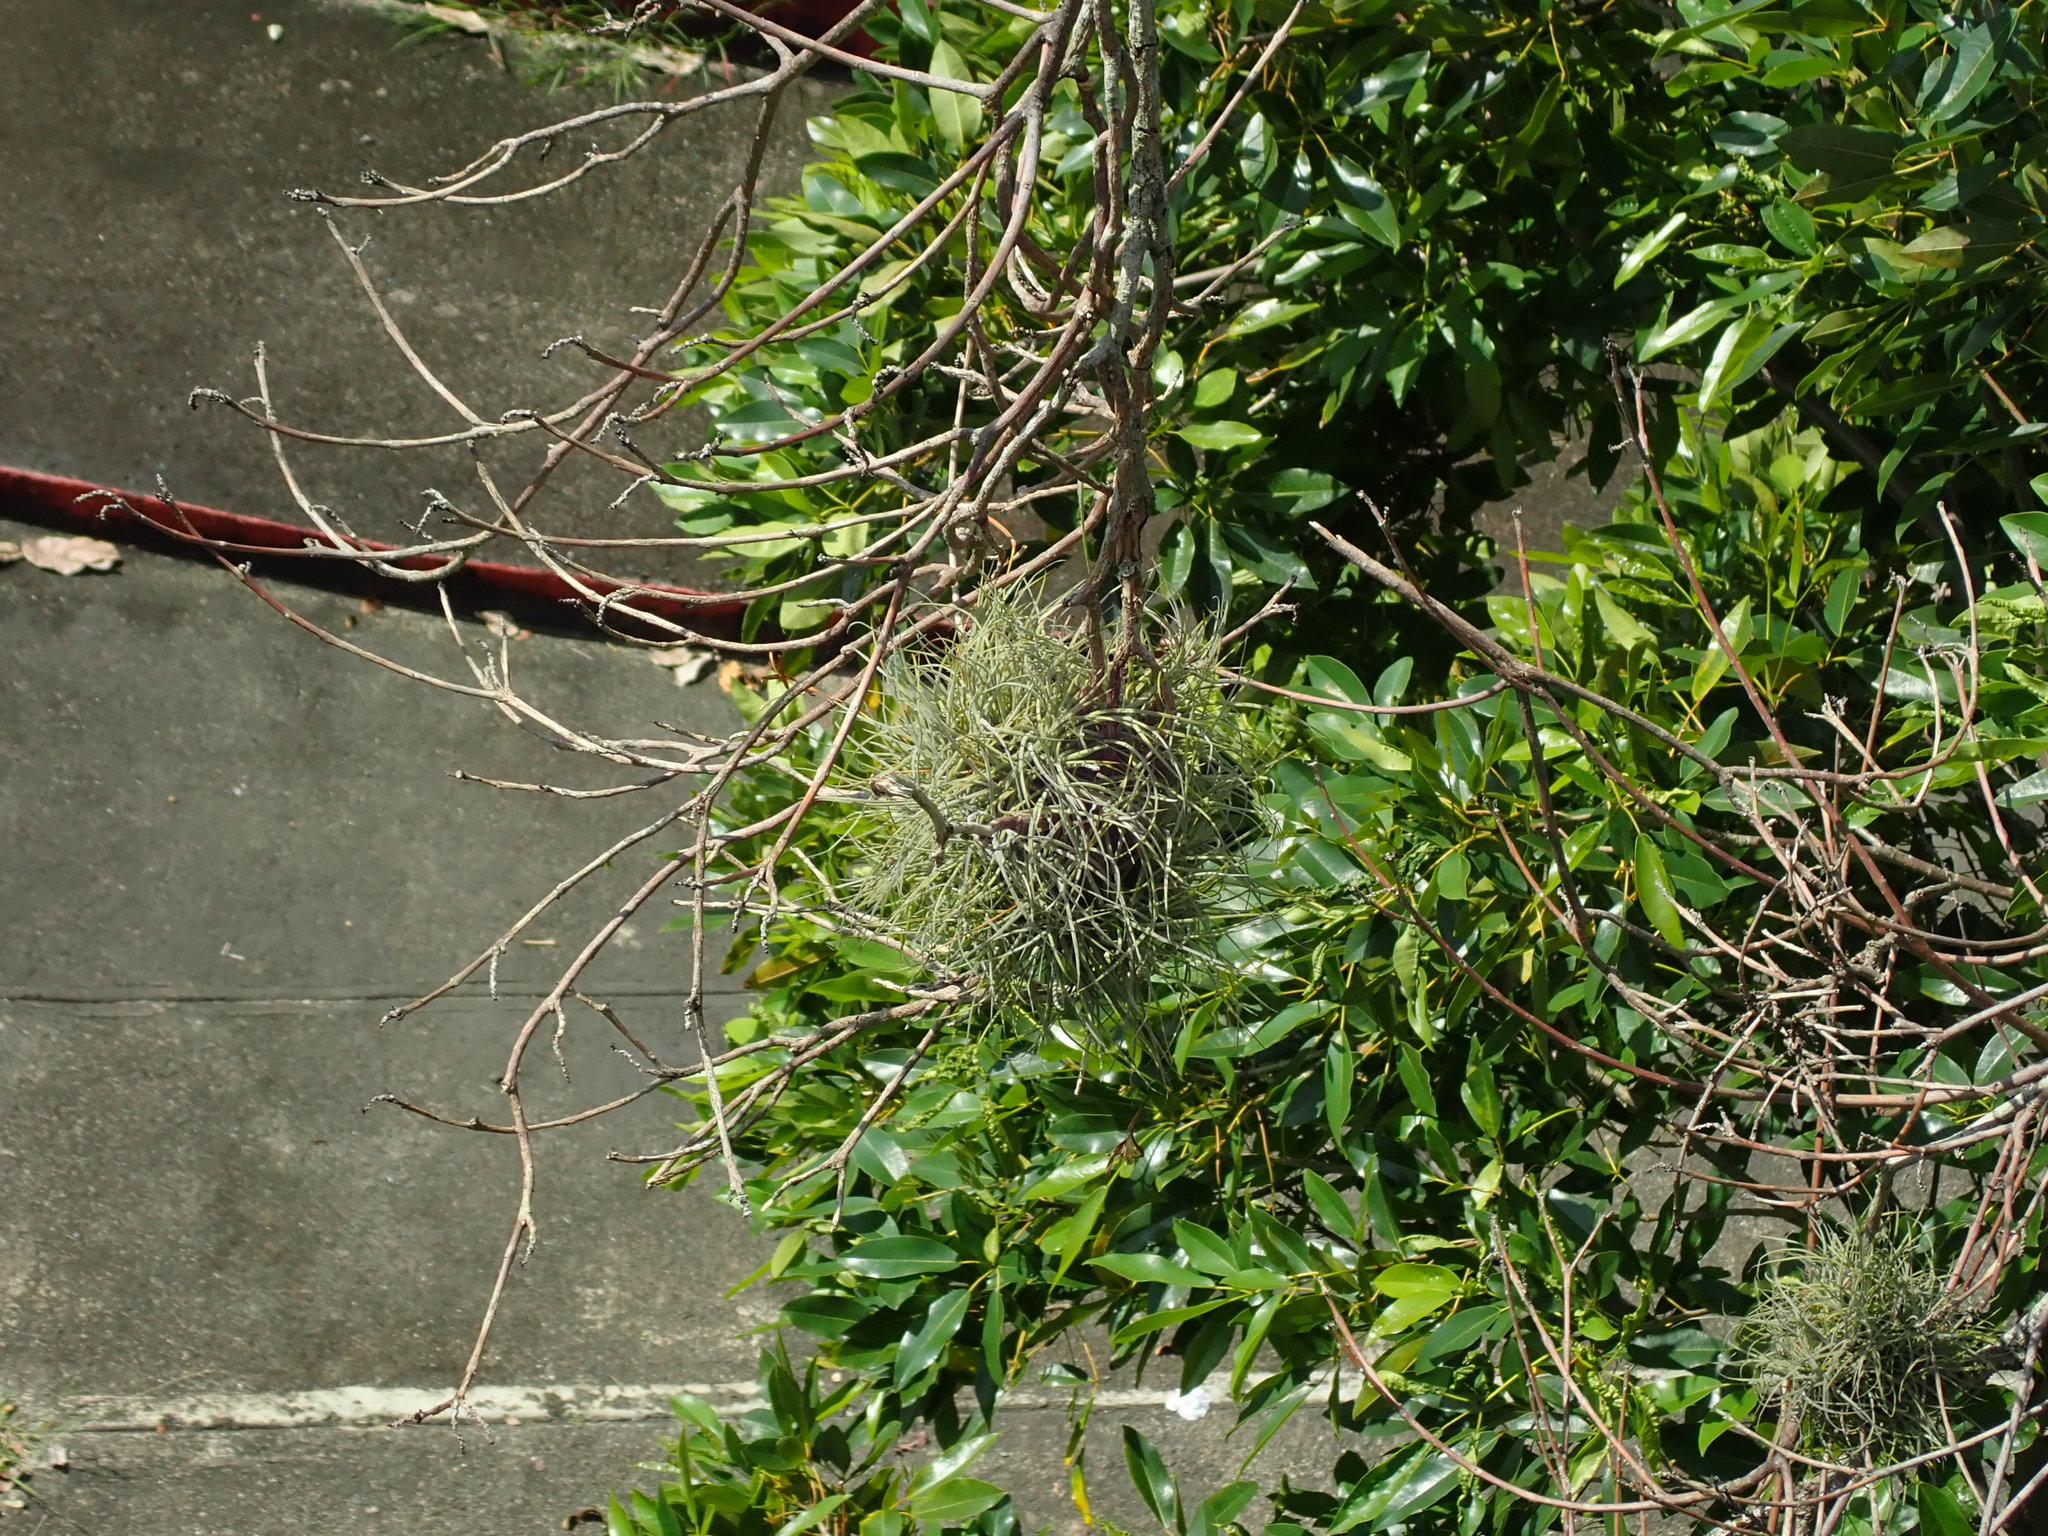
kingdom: Plantae
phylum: Tracheophyta
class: Liliopsida
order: Poales
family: Bromeliaceae
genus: Tillandsia
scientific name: Tillandsia recurvata
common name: Small ballmoss
